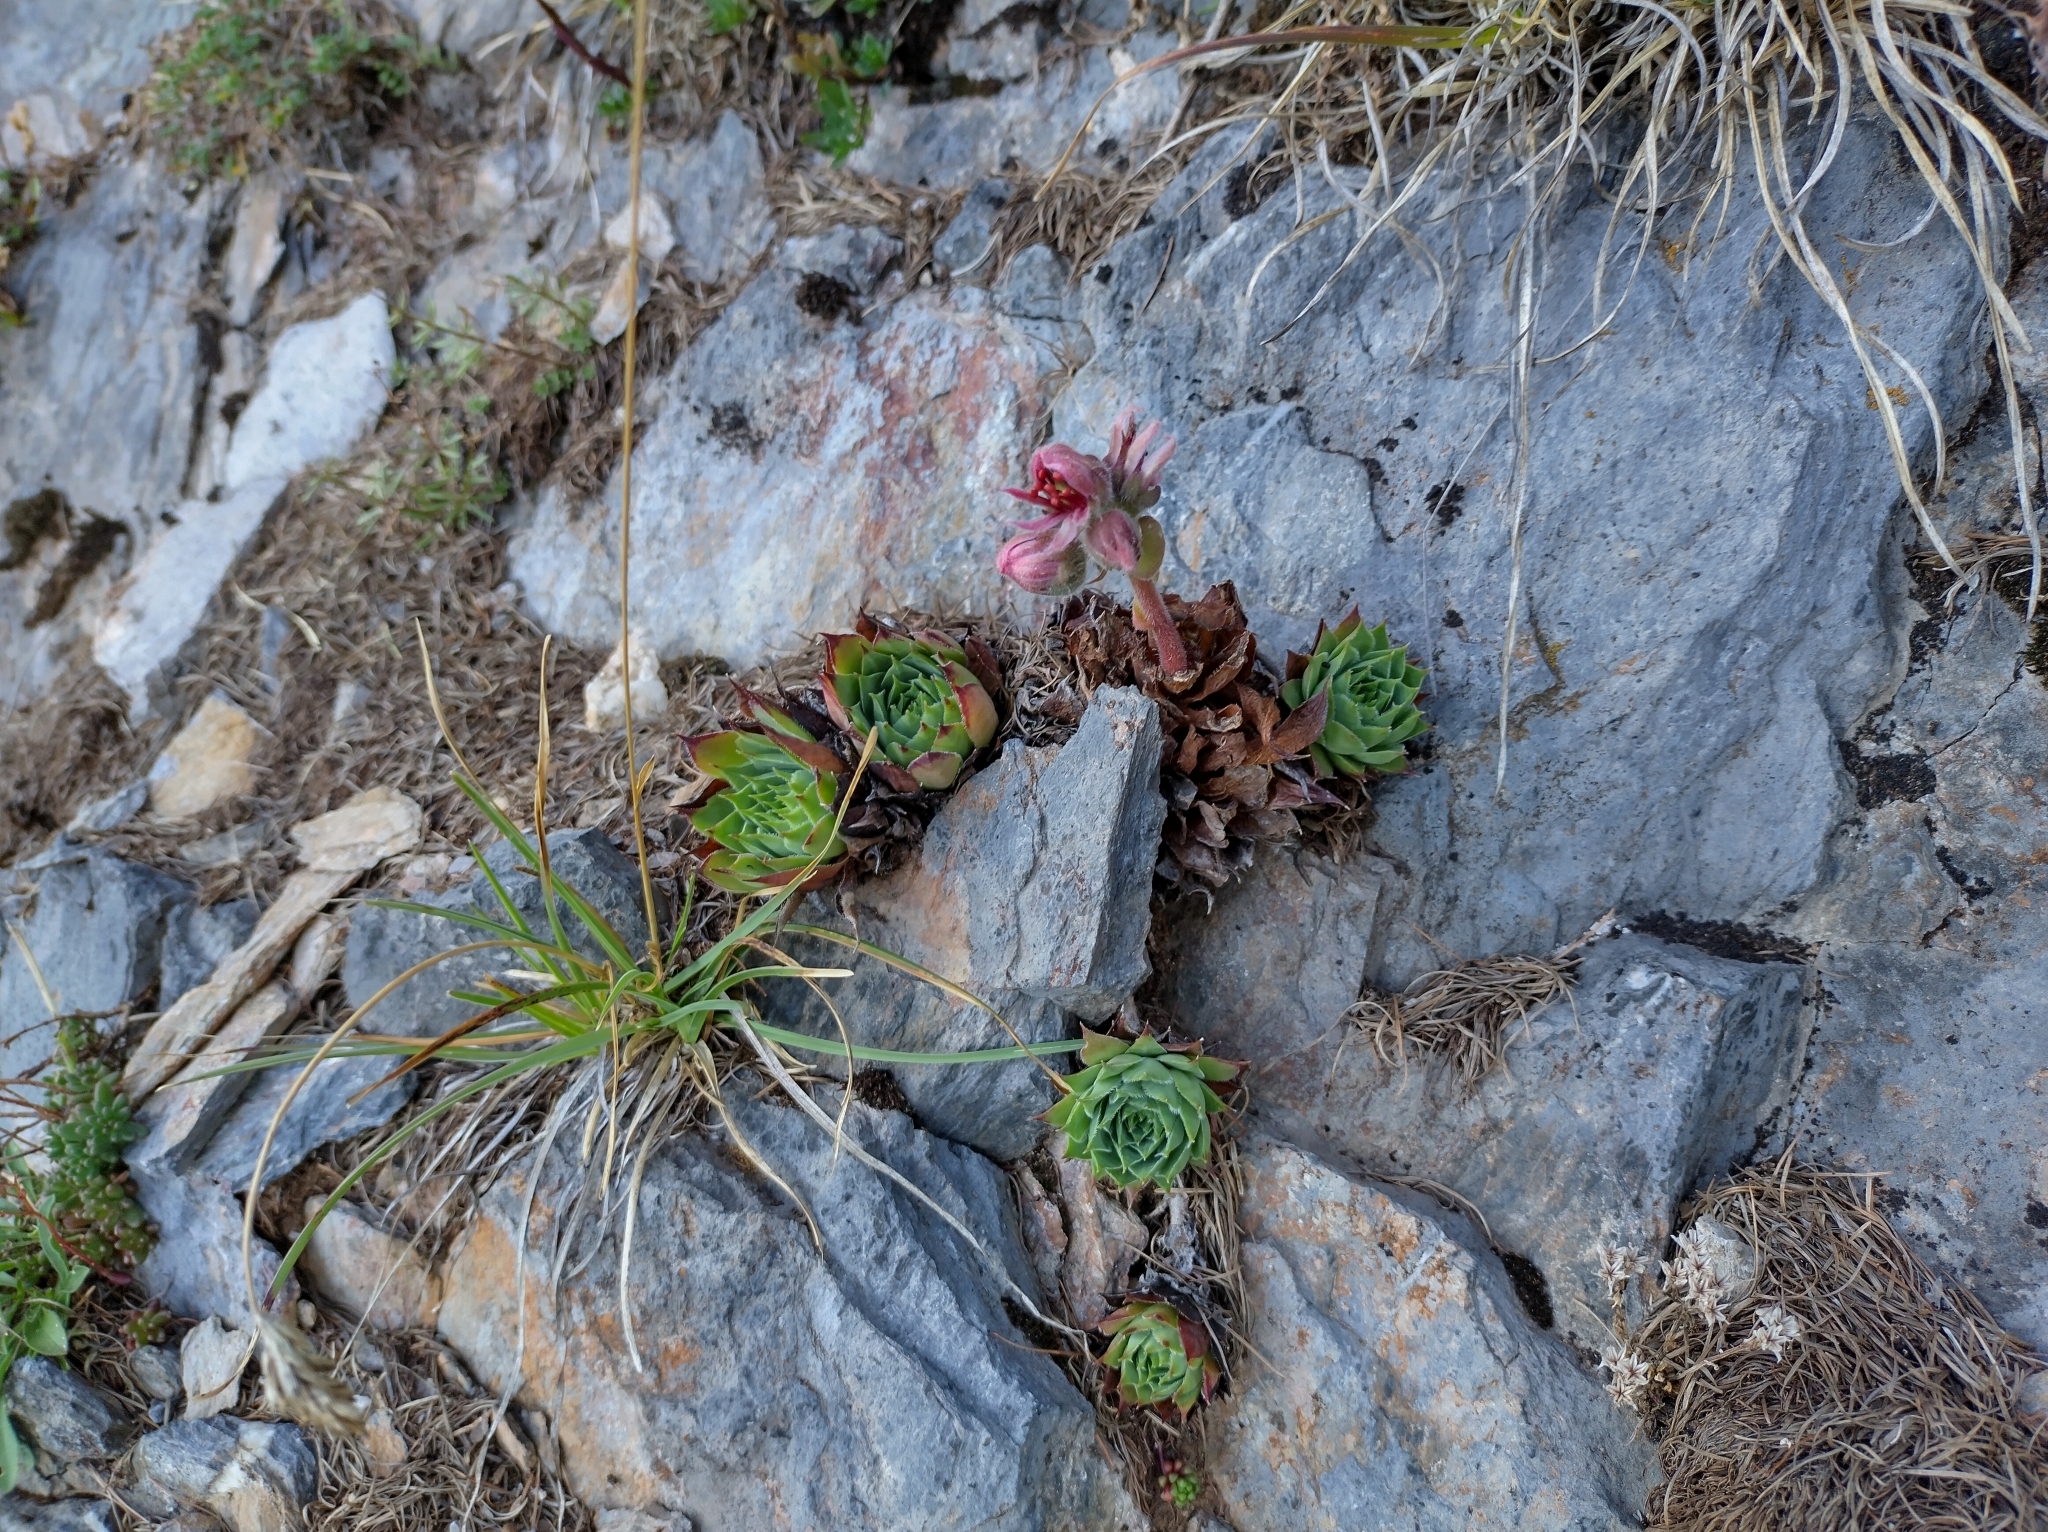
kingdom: Plantae
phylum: Tracheophyta
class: Magnoliopsida
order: Saxifragales
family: Crassulaceae
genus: Sempervivum
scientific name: Sempervivum tectorum
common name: House-leek
